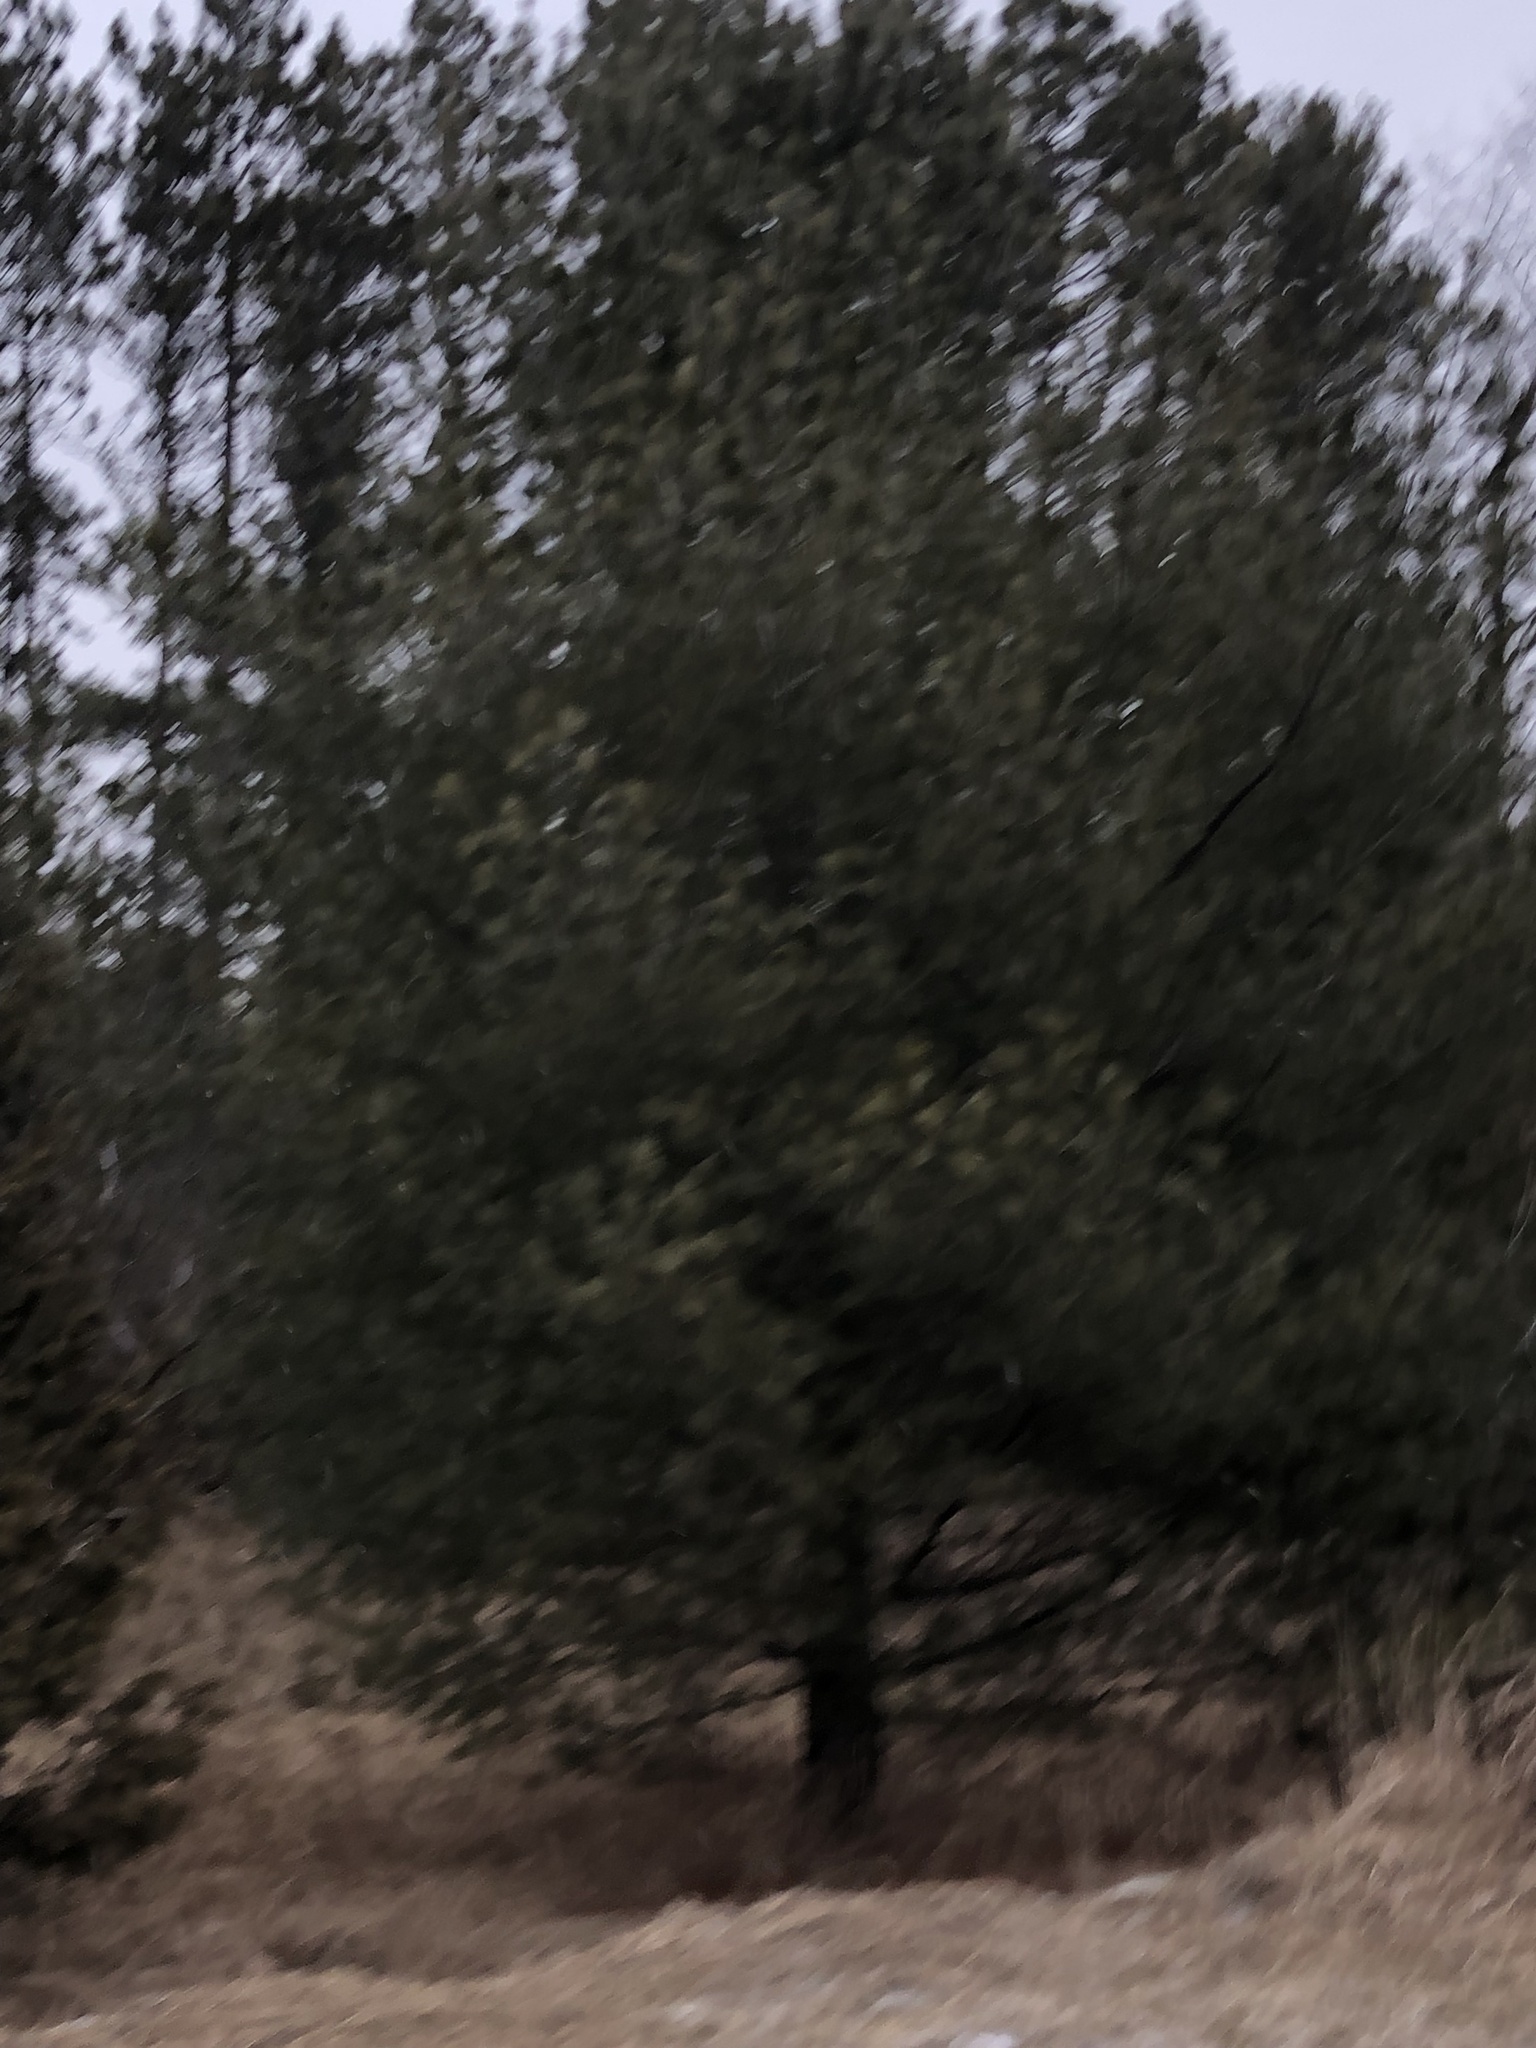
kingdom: Plantae
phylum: Tracheophyta
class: Pinopsida
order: Pinales
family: Pinaceae
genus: Pinus
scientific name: Pinus strobus
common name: Weymouth pine
